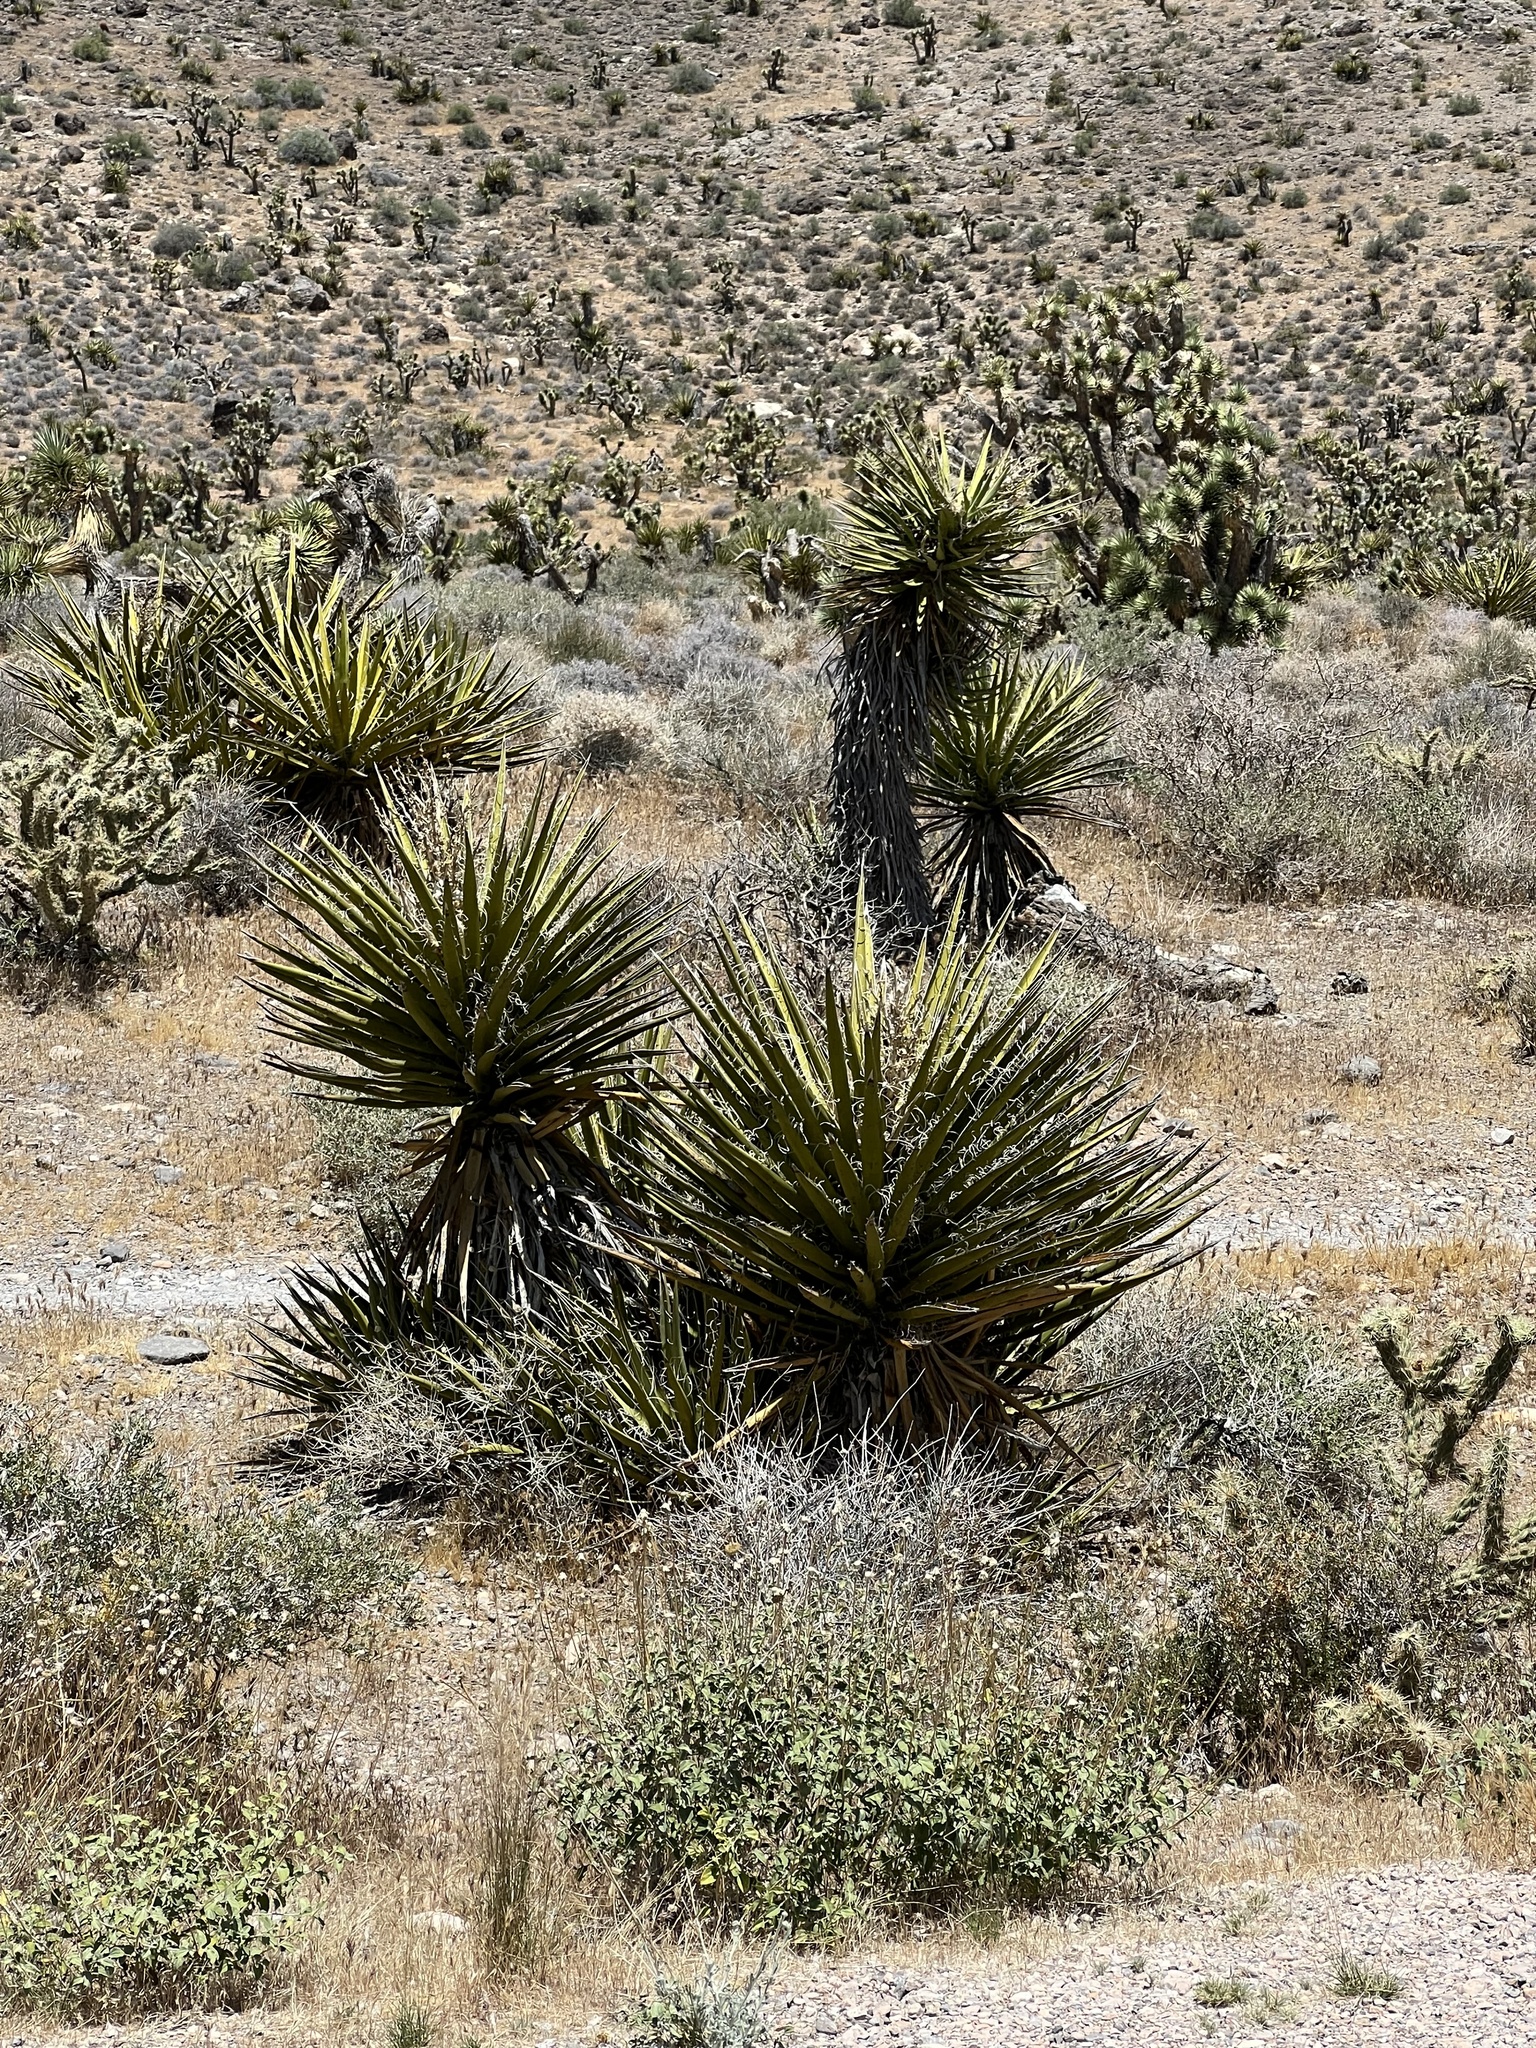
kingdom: Plantae
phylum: Tracheophyta
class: Liliopsida
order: Asparagales
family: Asparagaceae
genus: Yucca
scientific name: Yucca schidigera
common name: Mojave yucca
